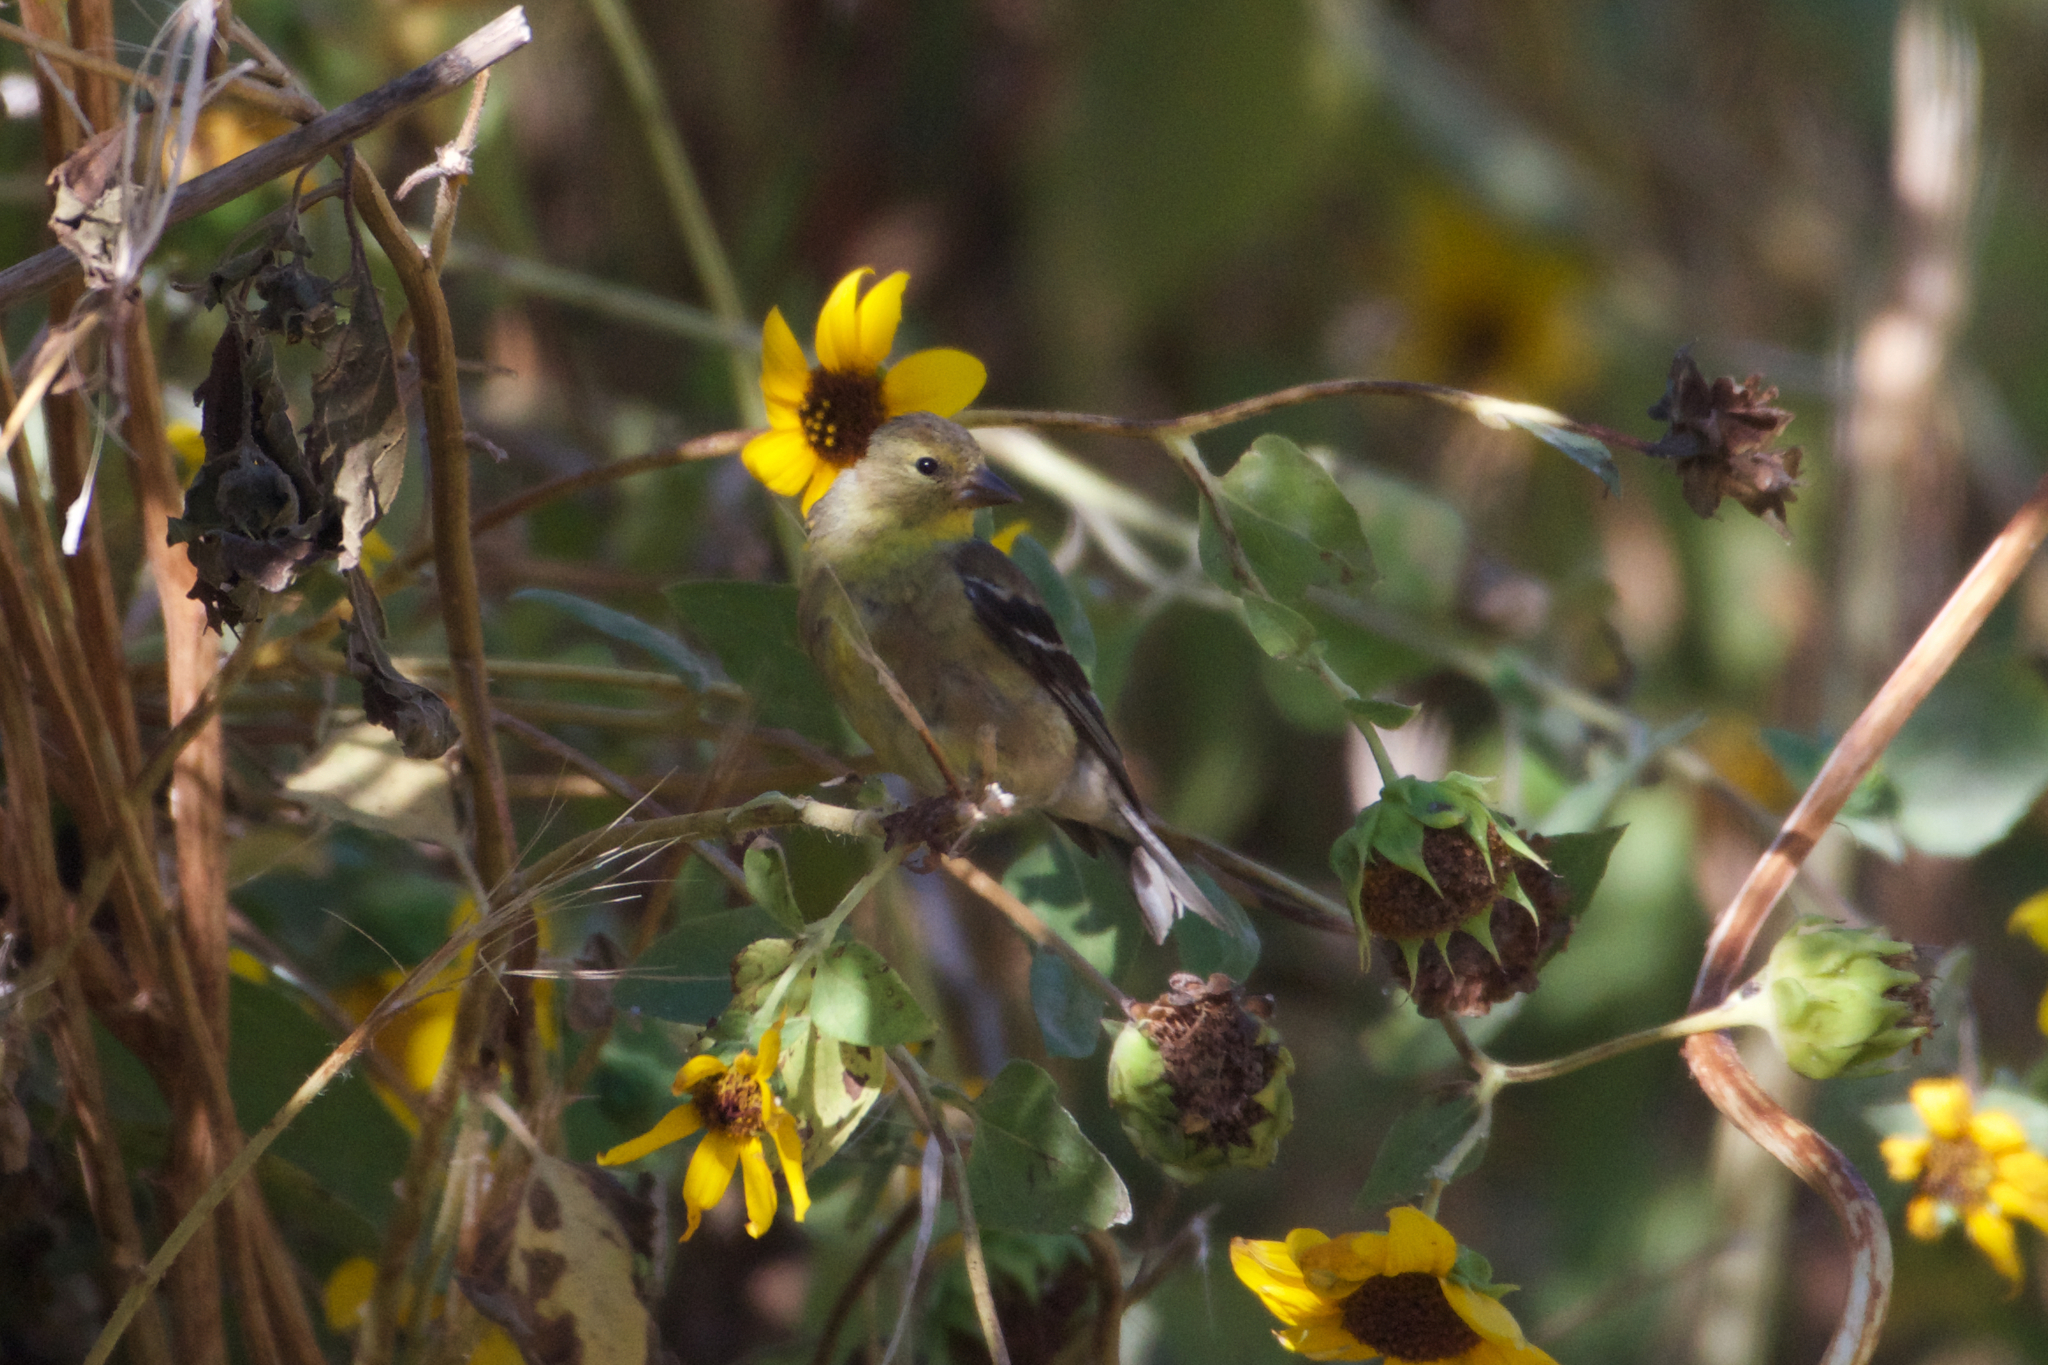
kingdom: Animalia
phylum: Chordata
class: Aves
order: Passeriformes
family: Fringillidae
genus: Spinus
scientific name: Spinus tristis
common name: American goldfinch
